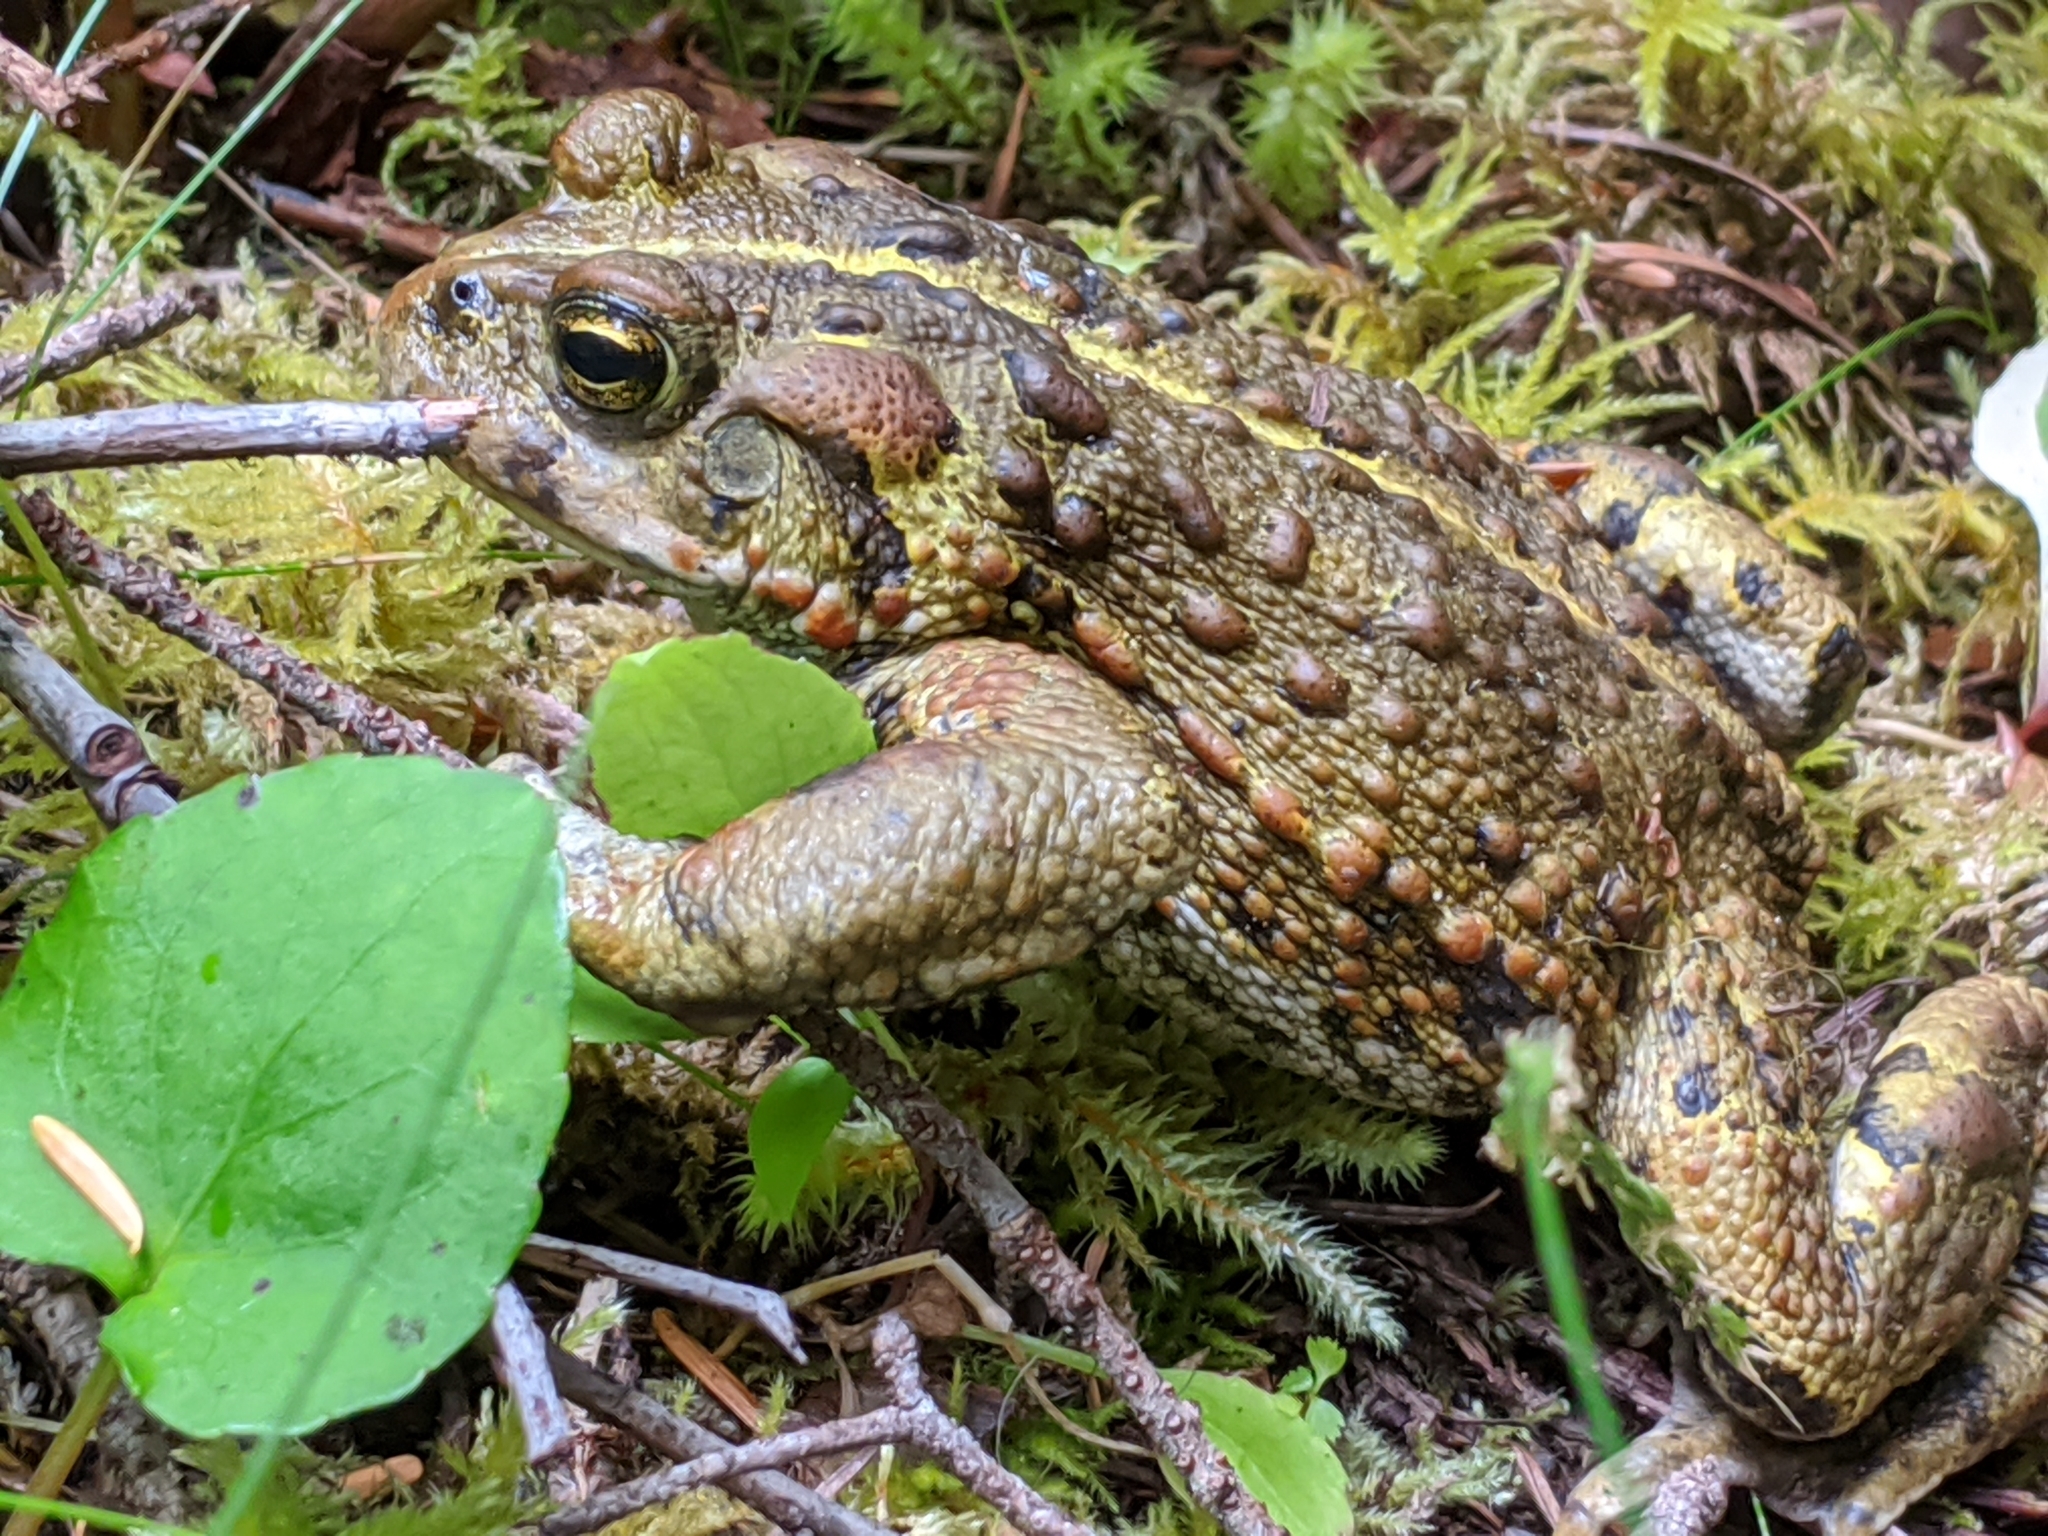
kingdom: Animalia
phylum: Chordata
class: Amphibia
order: Anura
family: Bufonidae
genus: Anaxyrus
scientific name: Anaxyrus boreas
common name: Western toad
